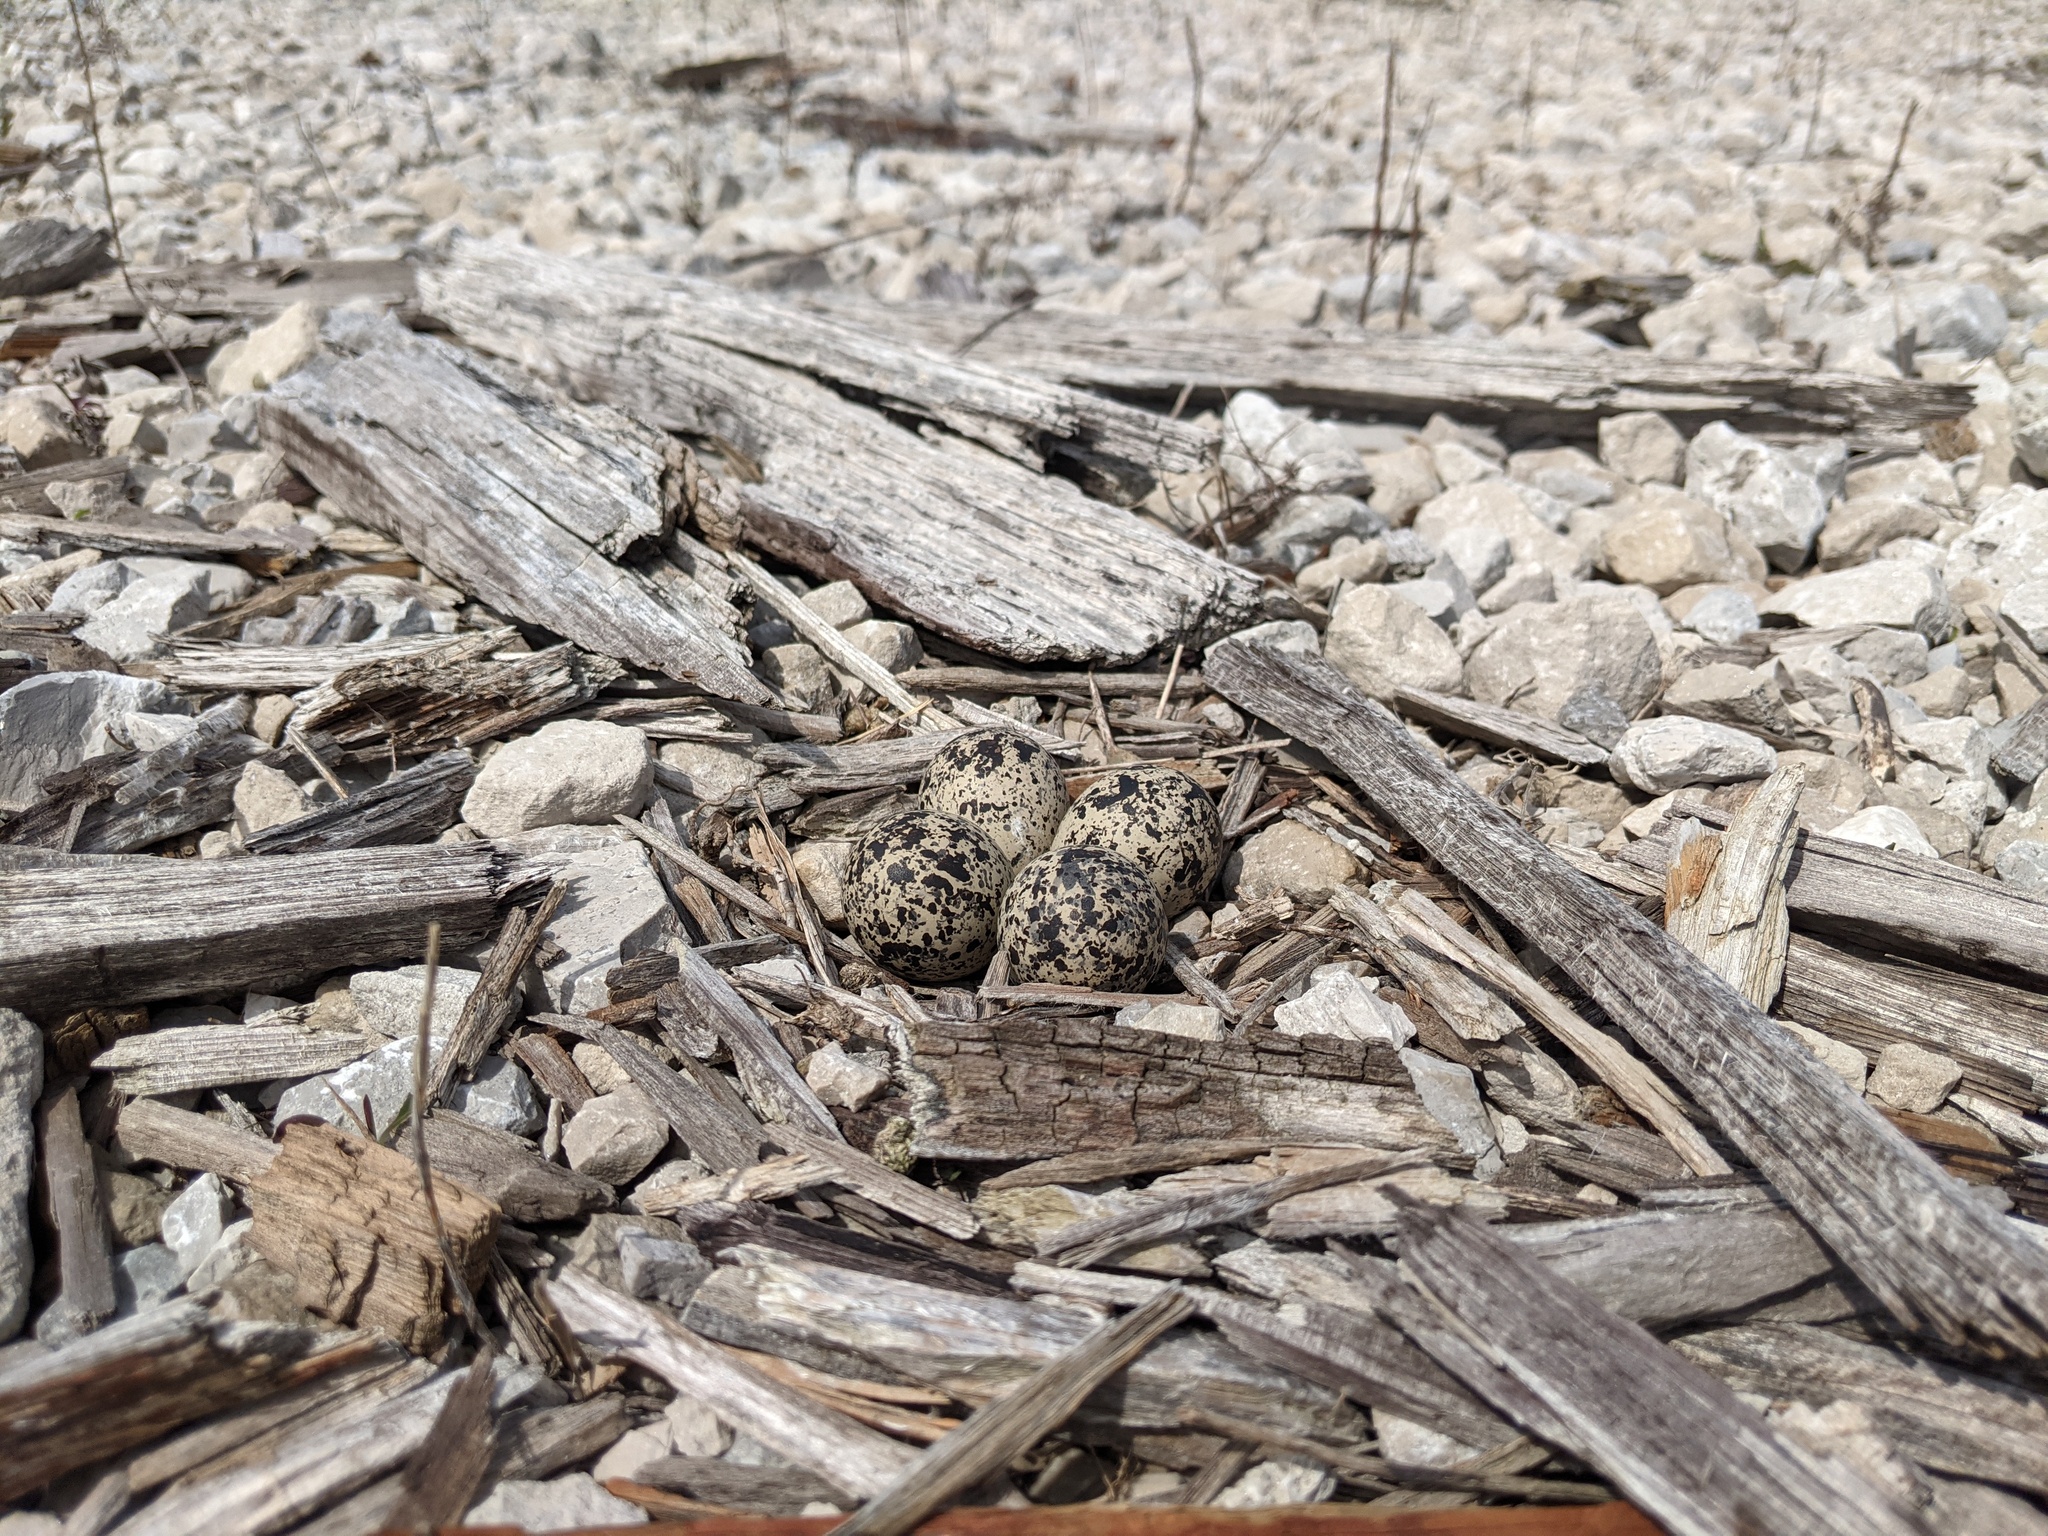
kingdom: Animalia
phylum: Chordata
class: Aves
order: Charadriiformes
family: Charadriidae
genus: Charadrius
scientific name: Charadrius vociferus
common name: Killdeer
